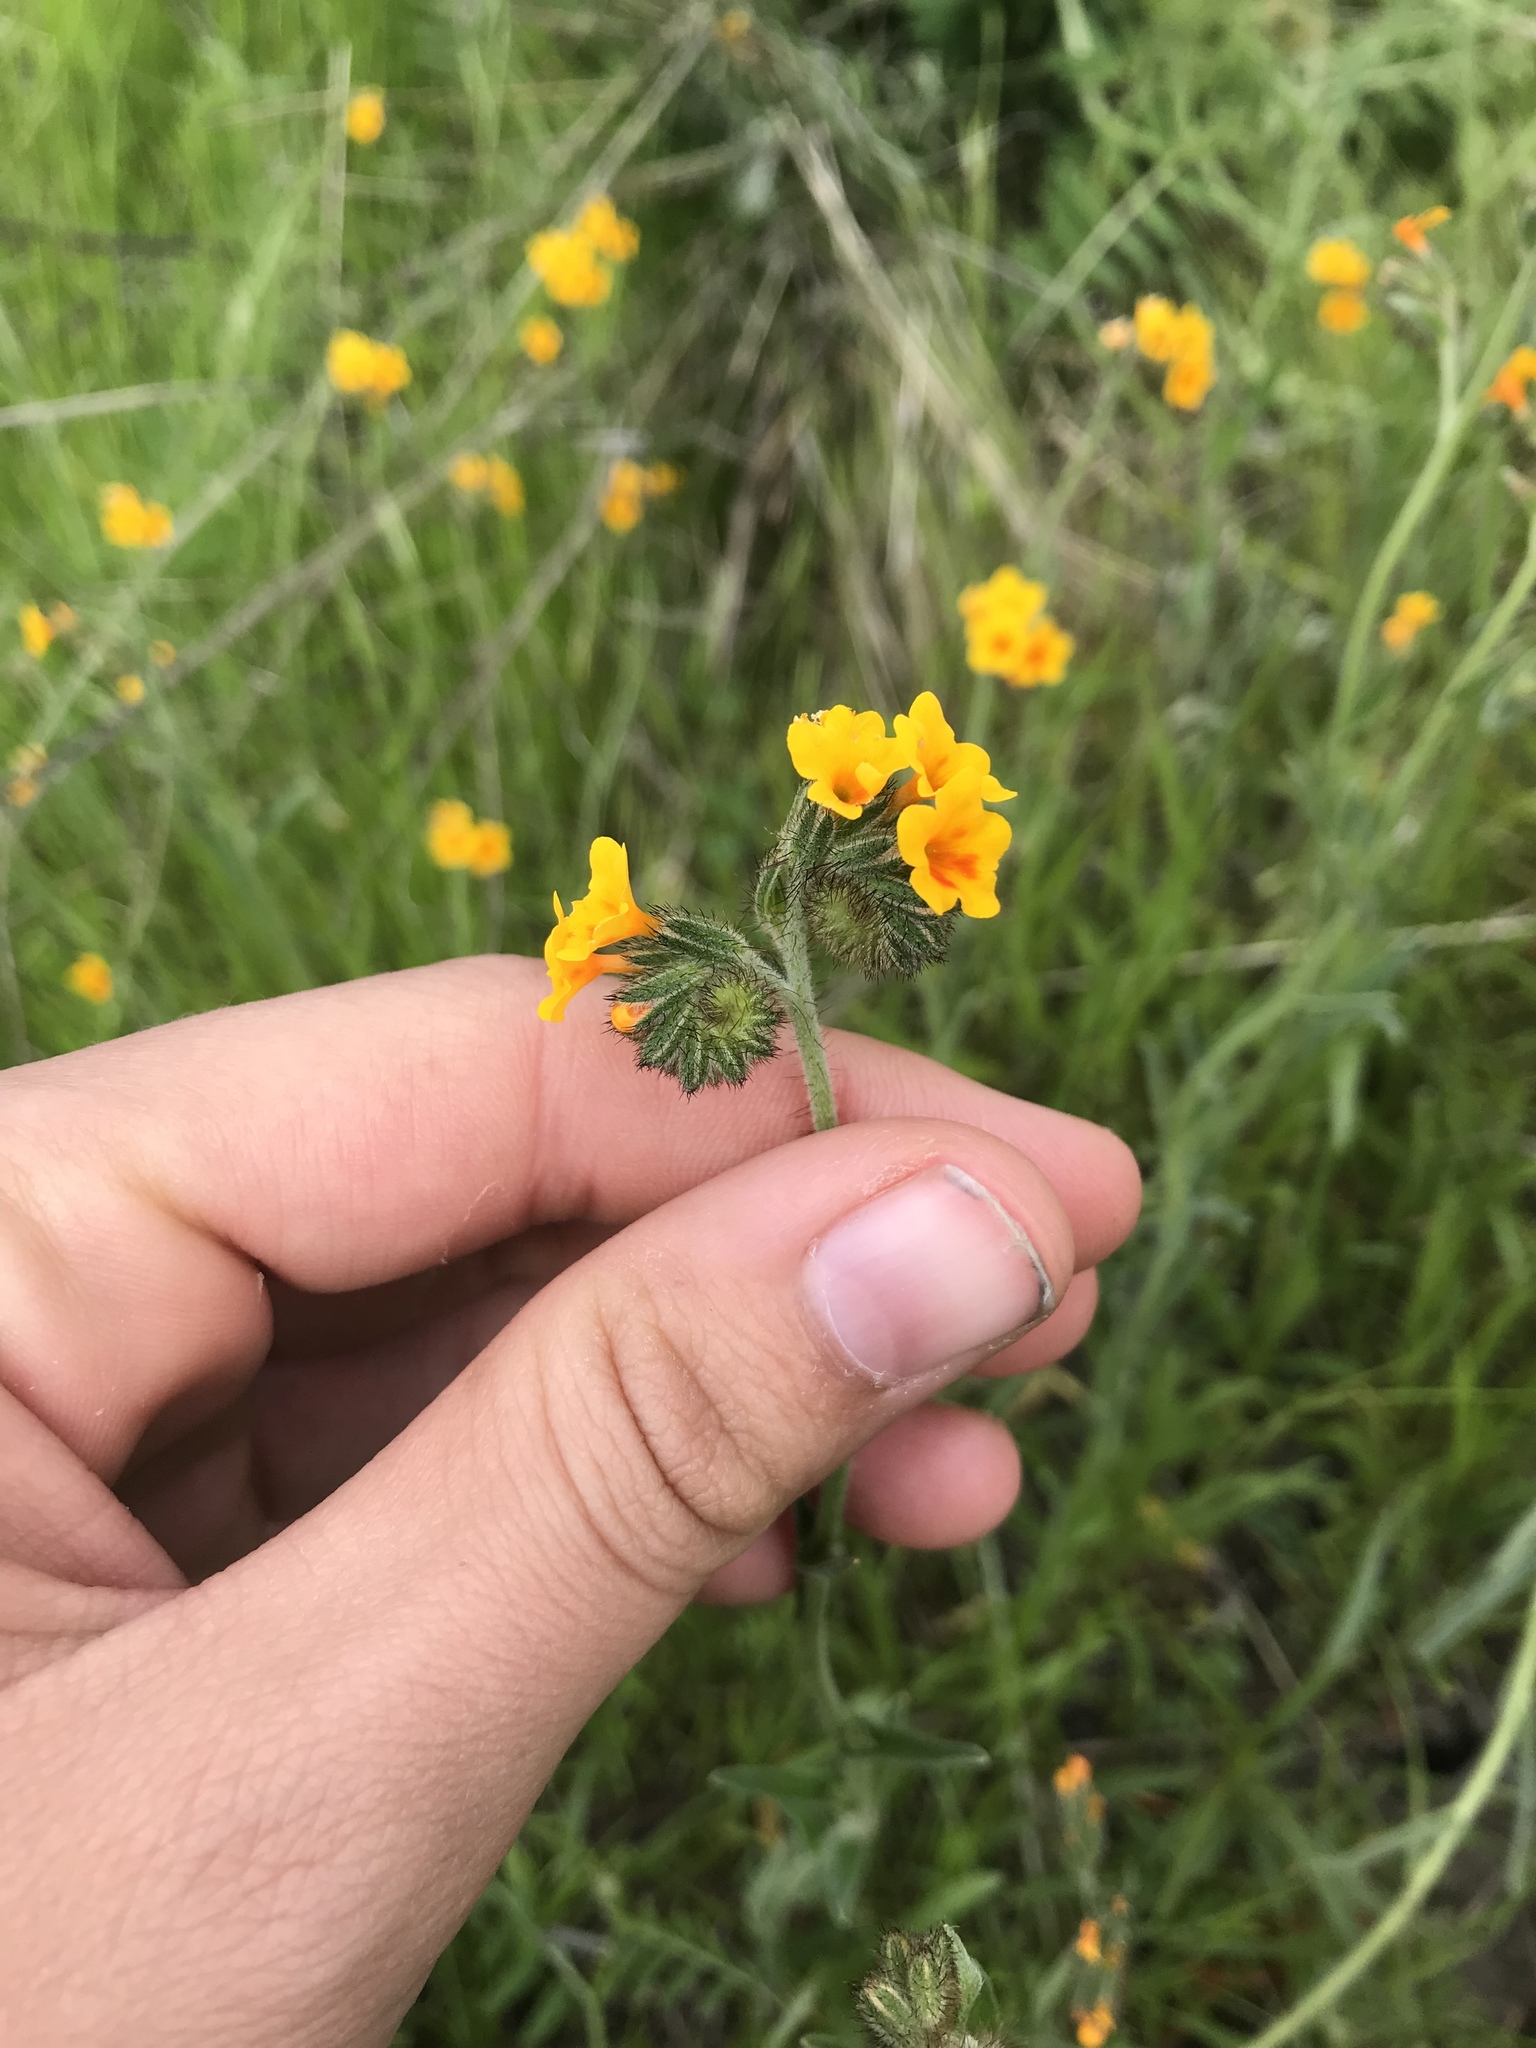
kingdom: Plantae
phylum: Tracheophyta
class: Magnoliopsida
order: Boraginales
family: Boraginaceae
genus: Amsinckia
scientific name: Amsinckia menziesii
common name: Menzies' fiddleneck
